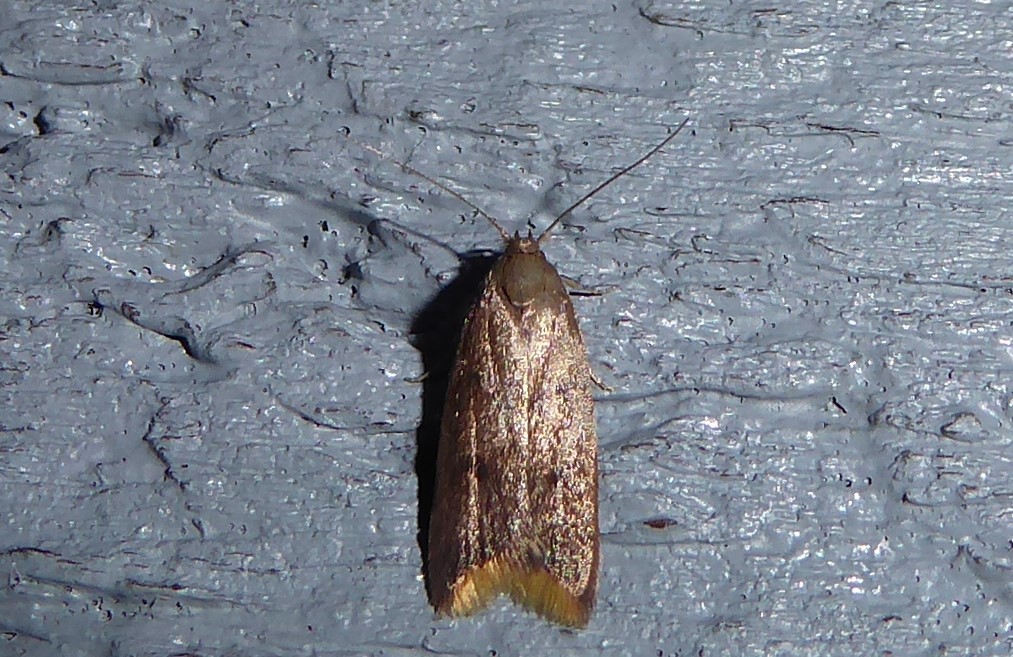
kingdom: Animalia
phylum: Arthropoda
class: Insecta
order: Lepidoptera
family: Oecophoridae
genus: Tachystola
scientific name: Tachystola acroxantha
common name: Ruddy streak
